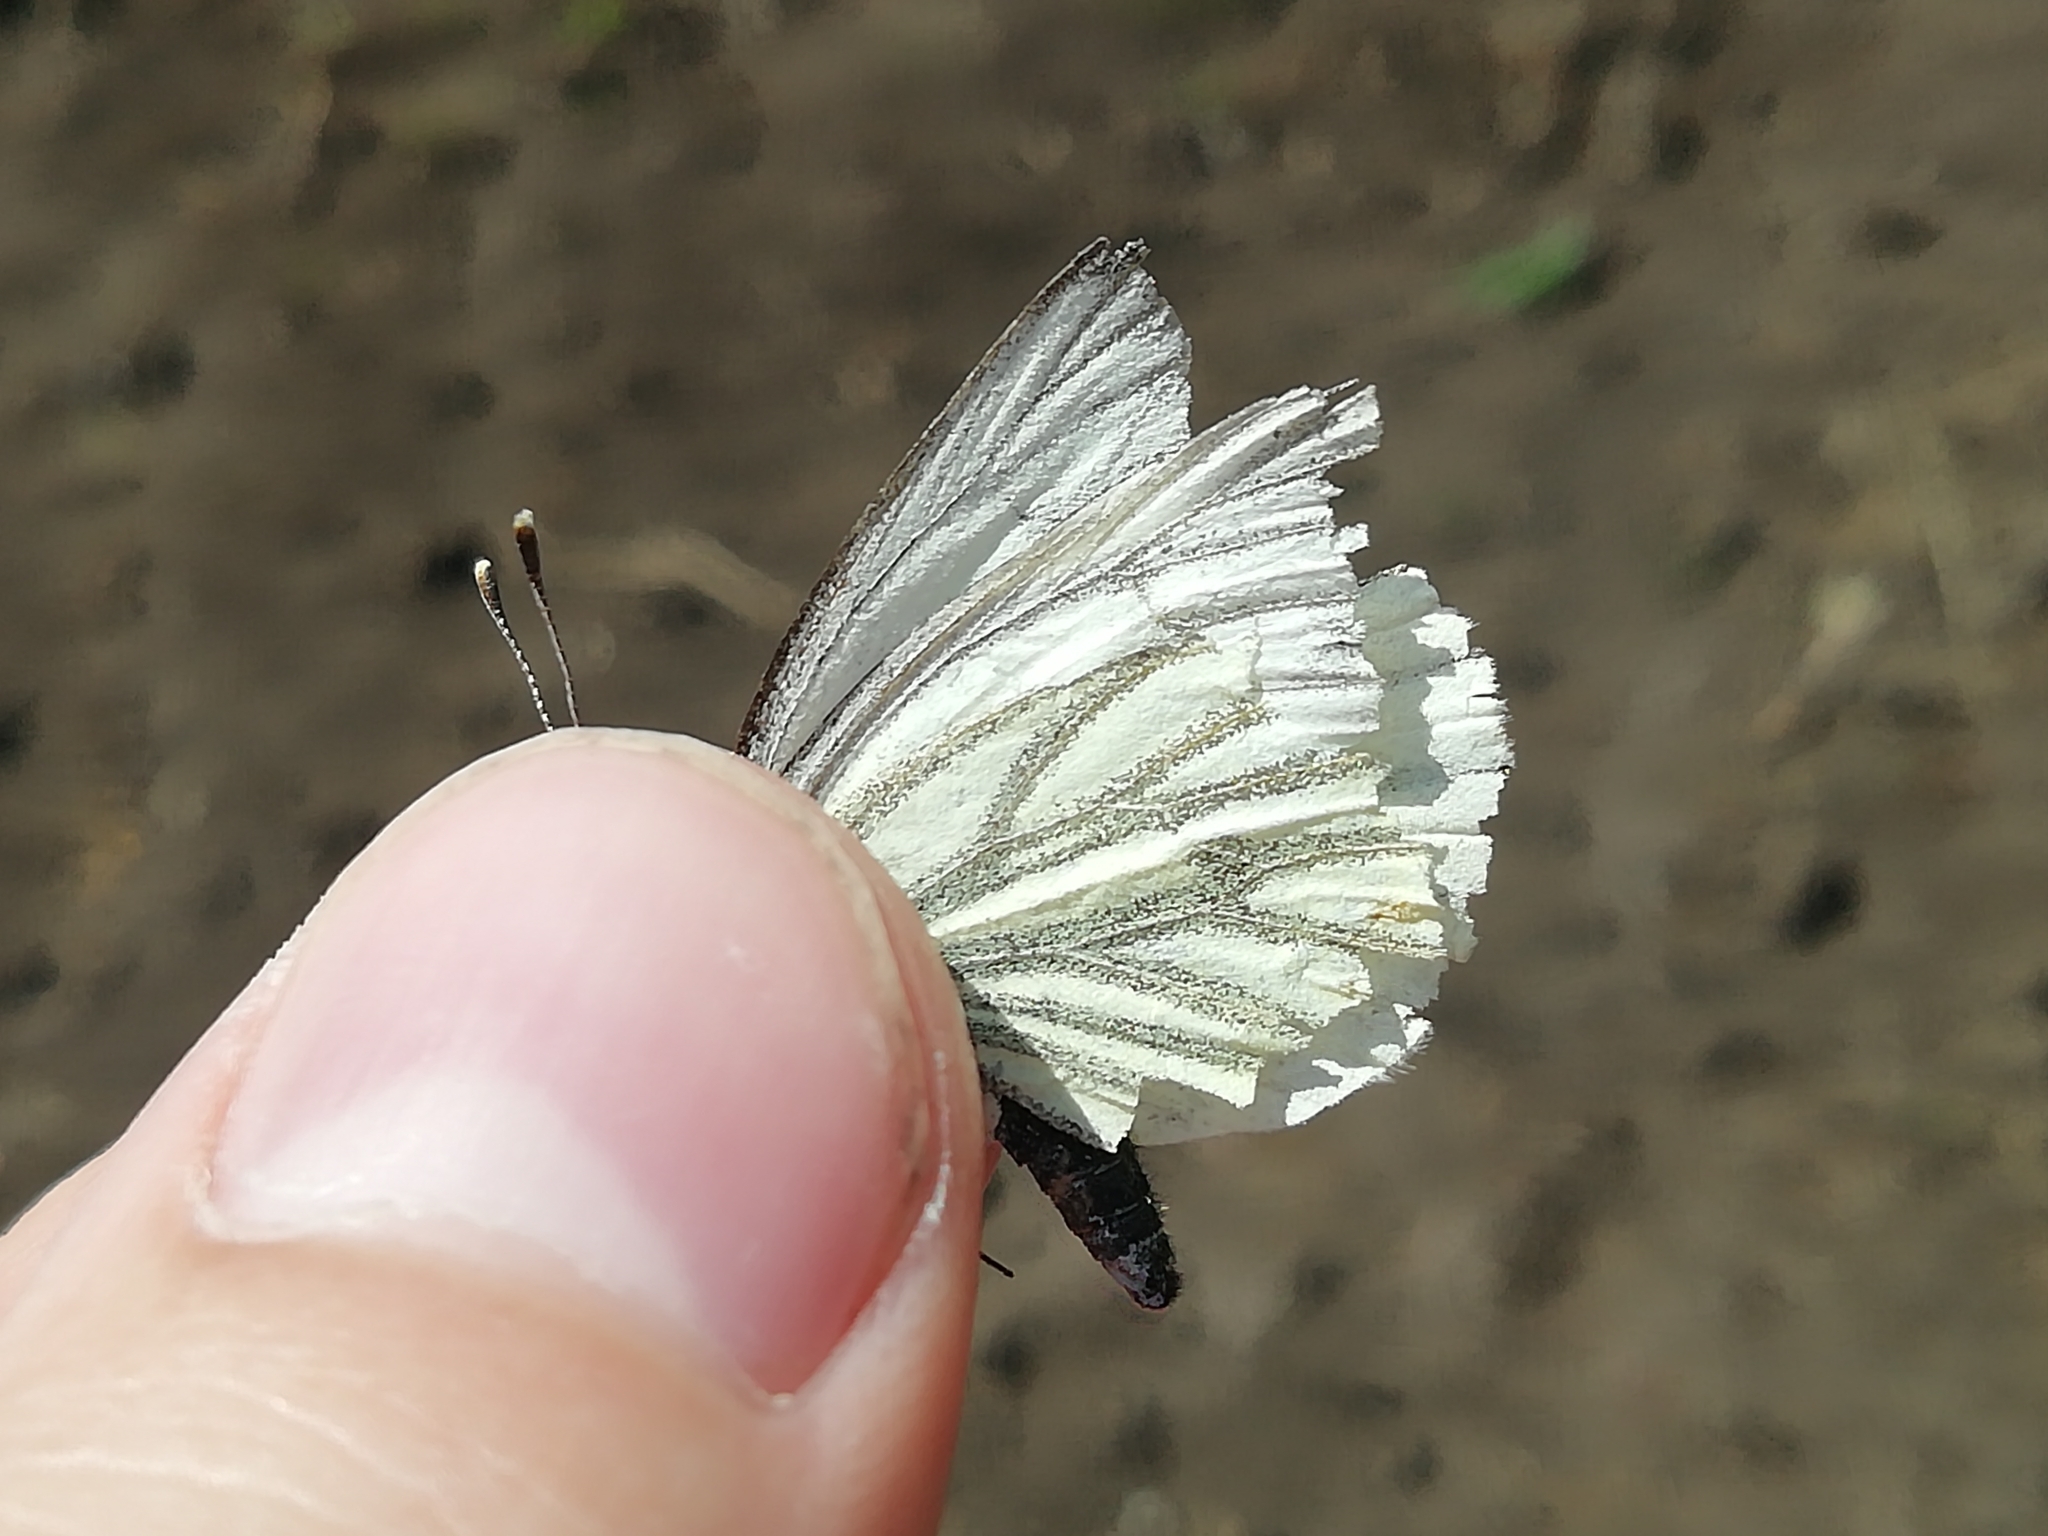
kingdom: Animalia
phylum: Arthropoda
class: Insecta
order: Lepidoptera
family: Pieridae
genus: Pieris
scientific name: Pieris napi
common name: Green-veined white
